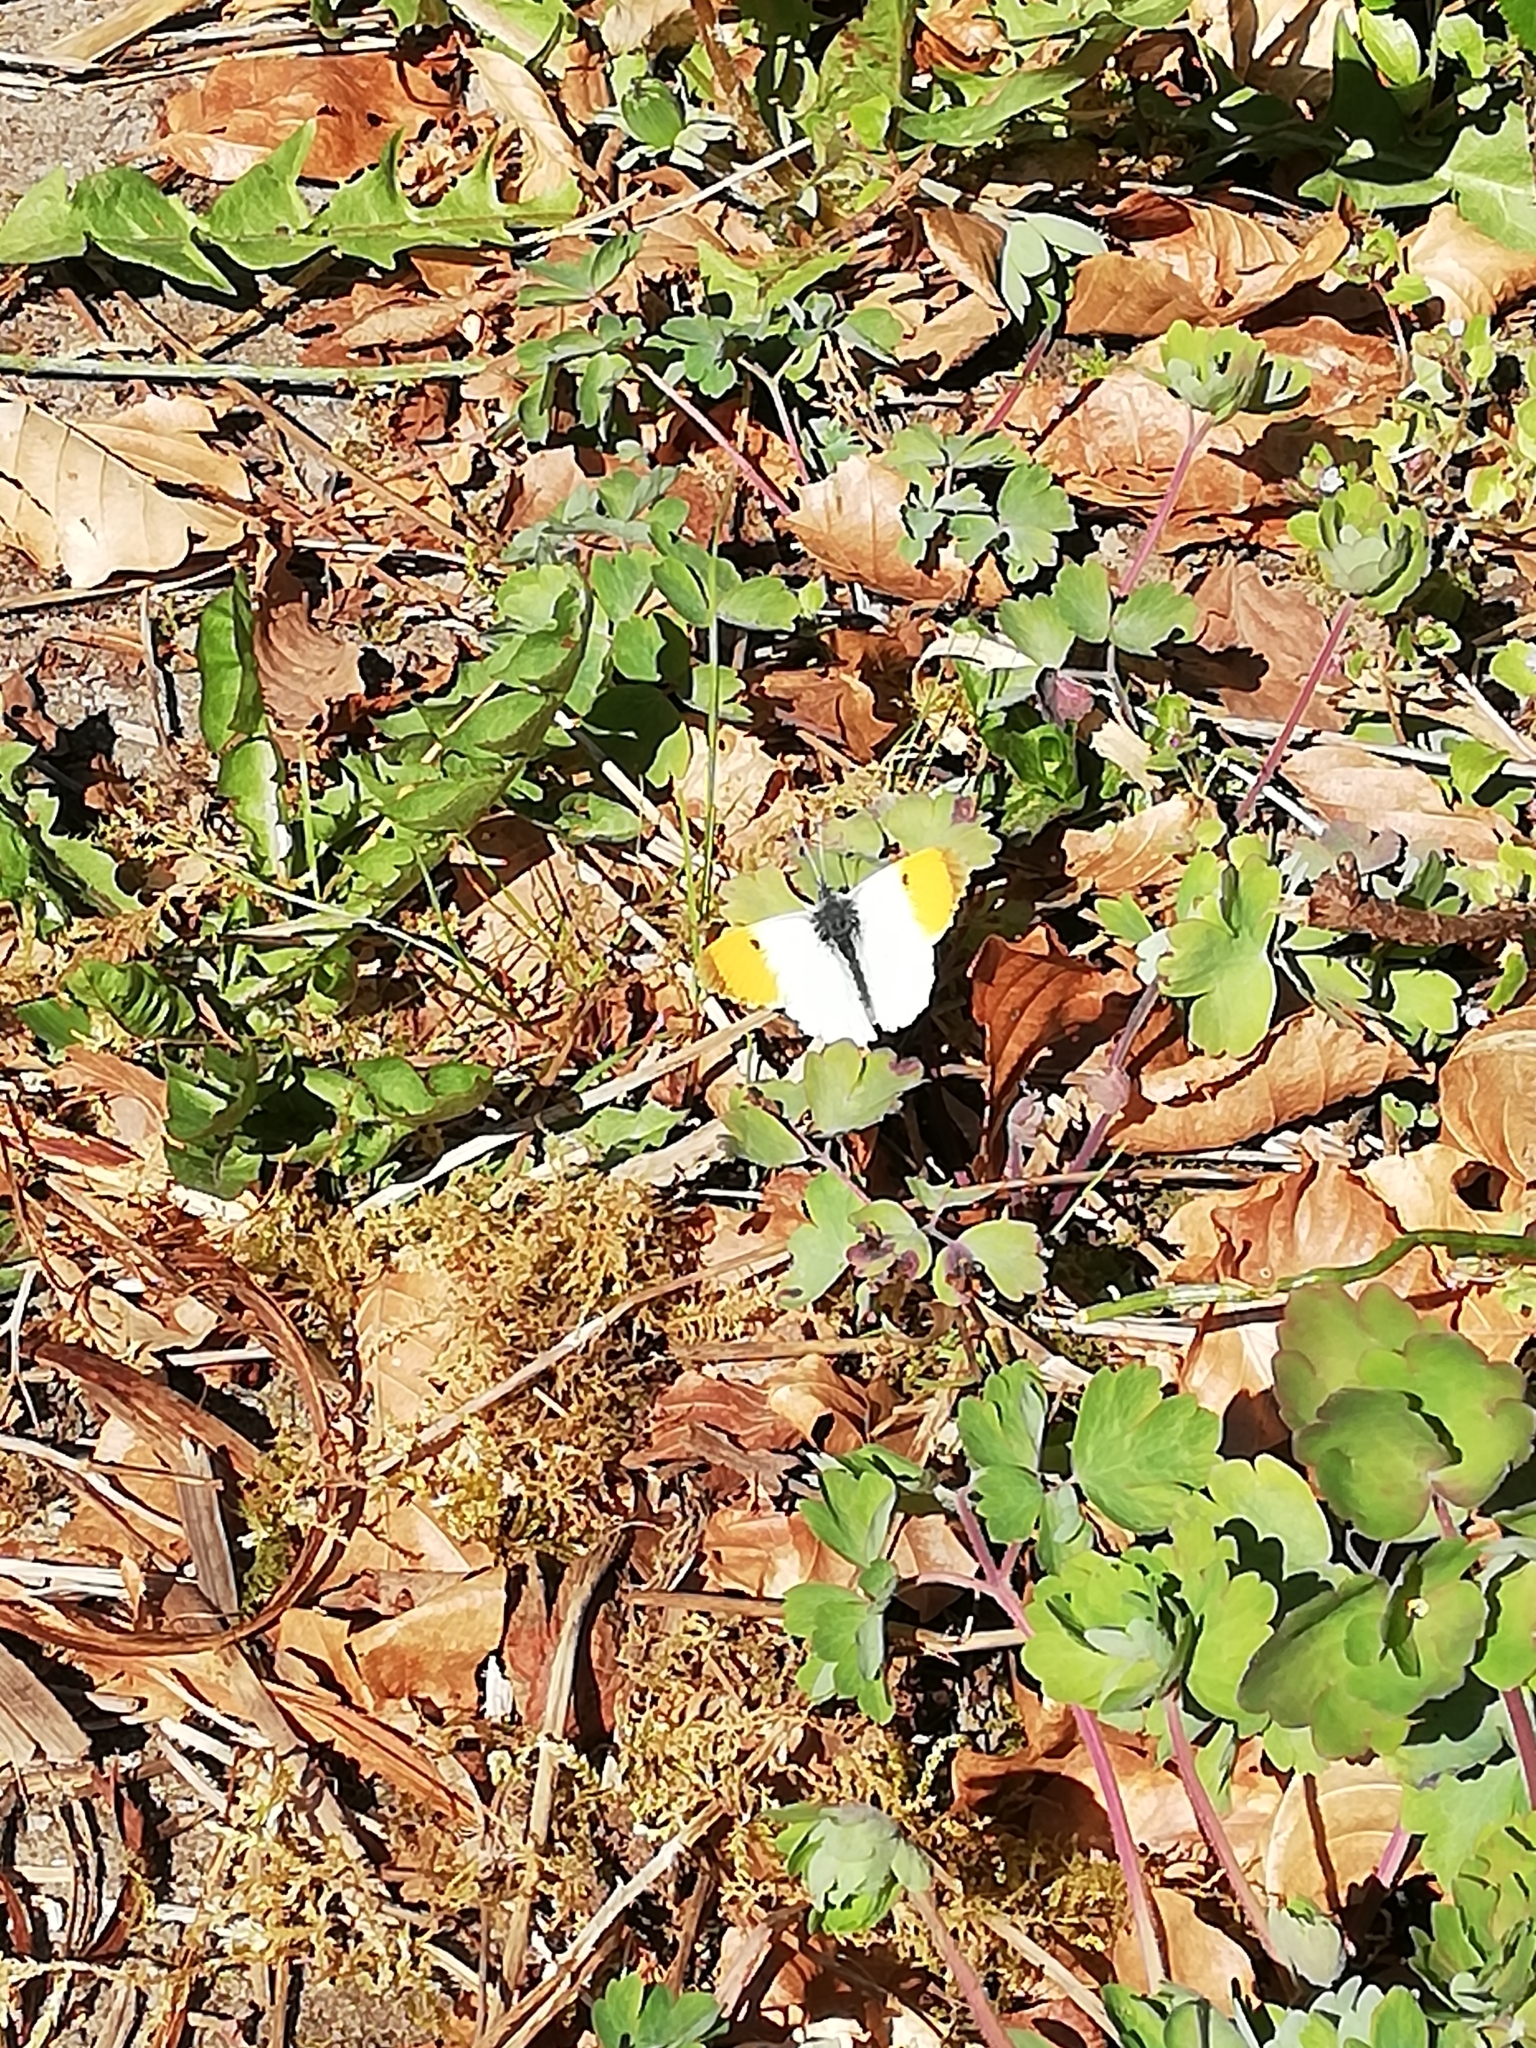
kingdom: Animalia
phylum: Arthropoda
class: Insecta
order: Lepidoptera
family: Pieridae
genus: Anthocharis
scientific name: Anthocharis cardamines
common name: Orange-tip
